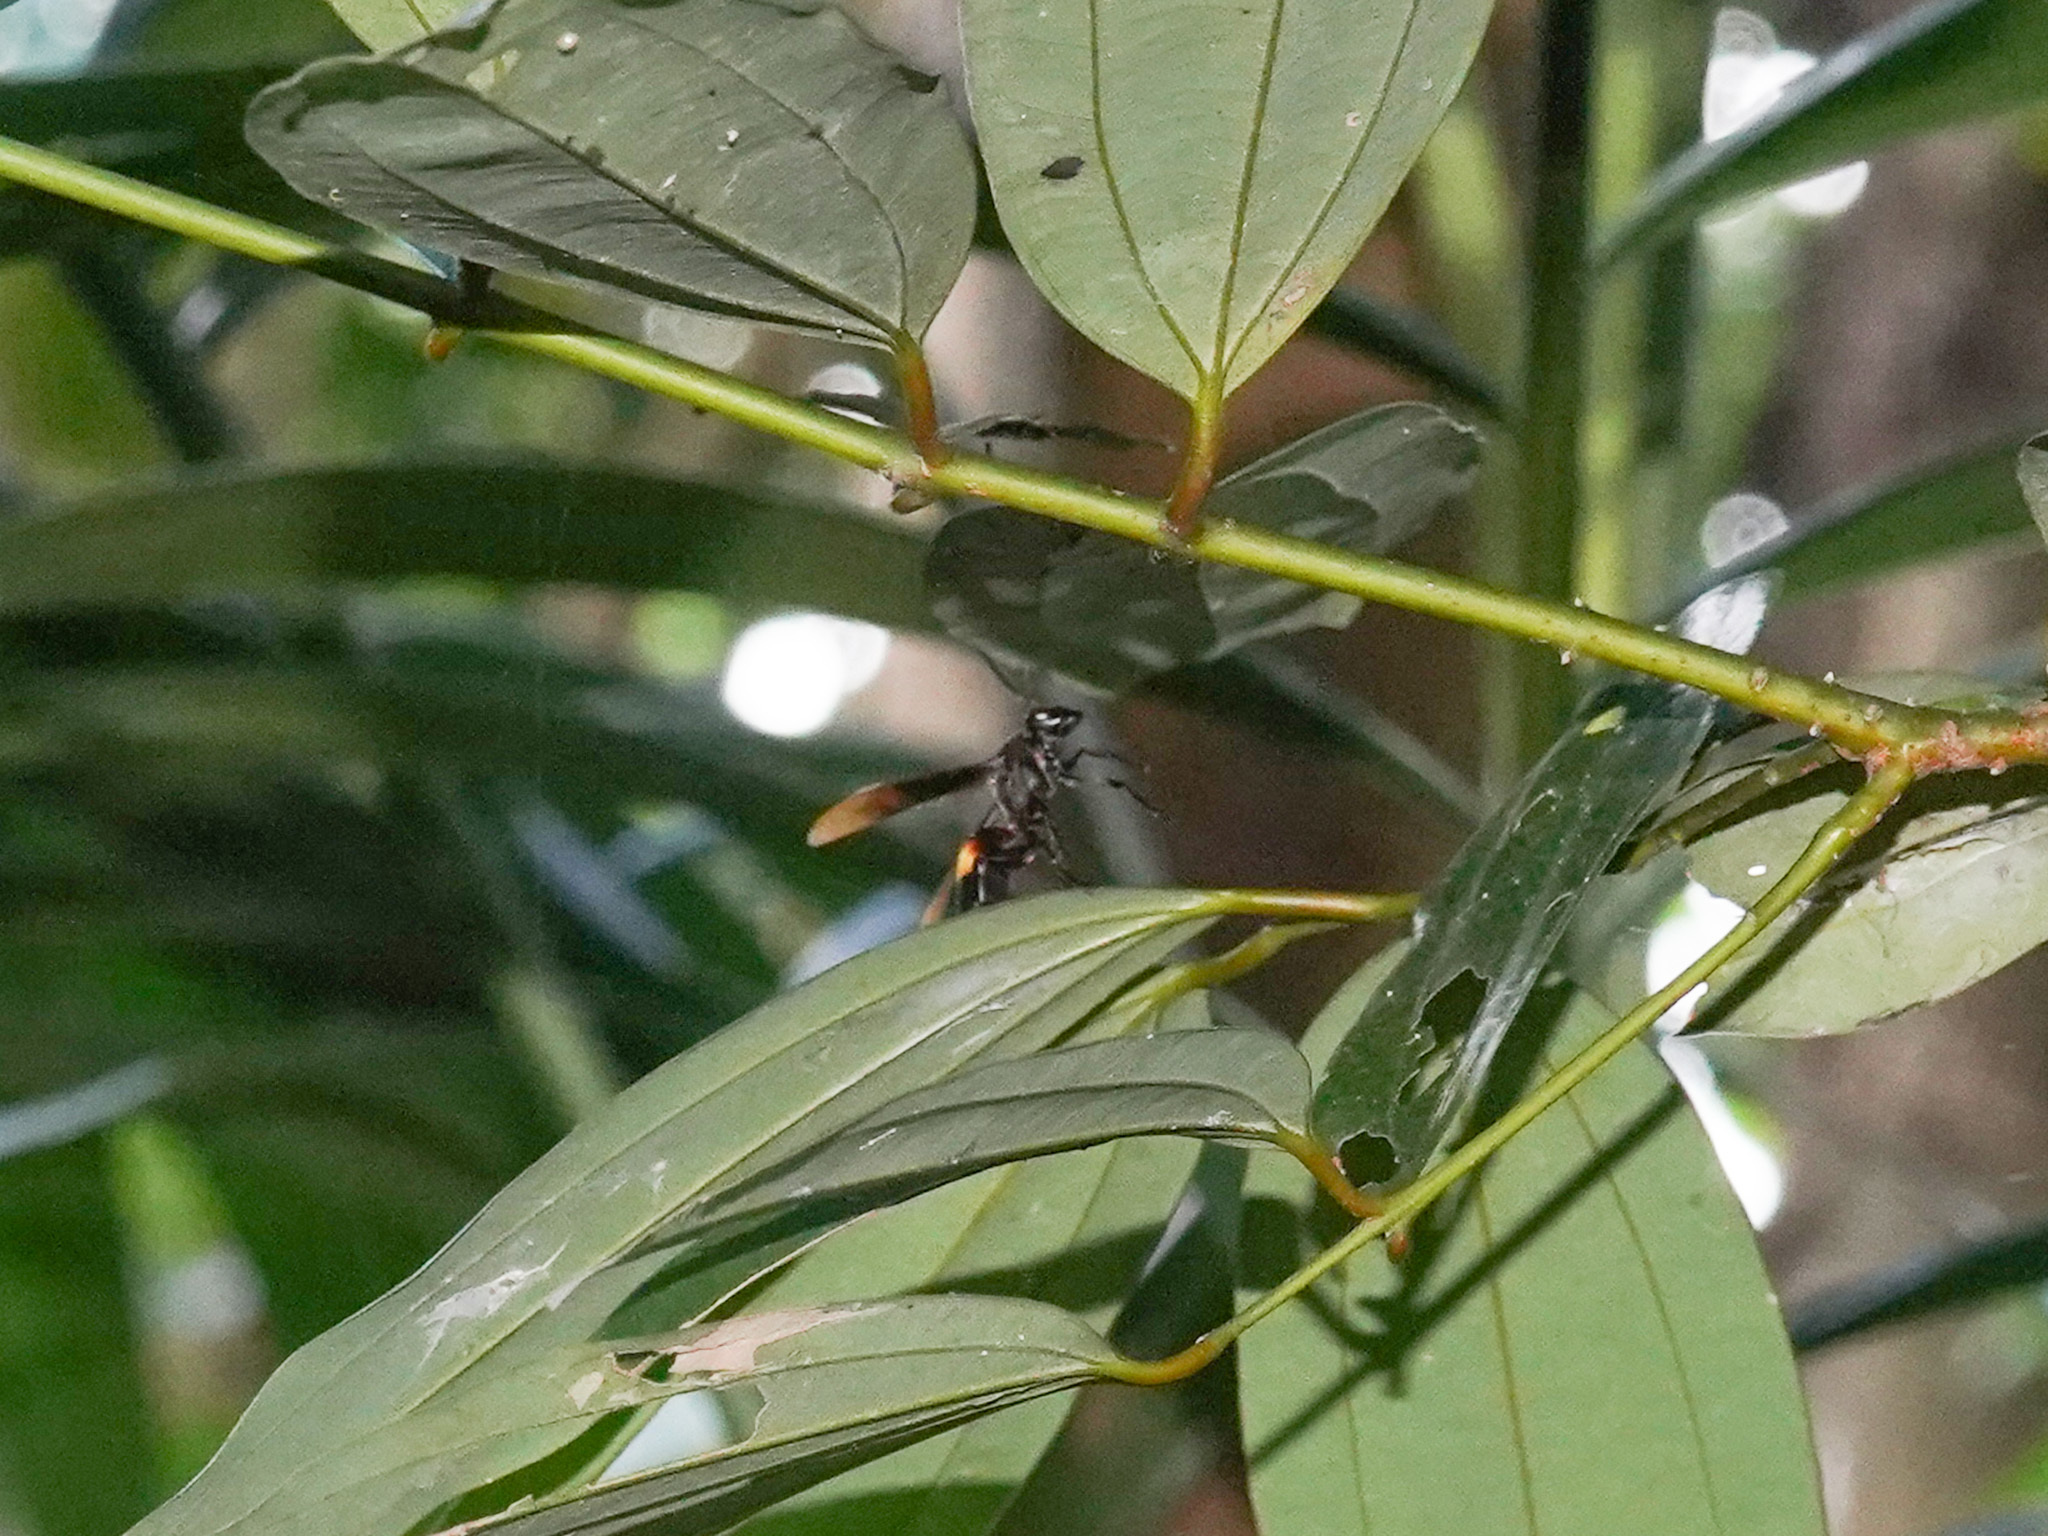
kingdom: Animalia
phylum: Arthropoda
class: Insecta
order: Hymenoptera
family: Eumenidae
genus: Polistes
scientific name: Polistes sagittarius
